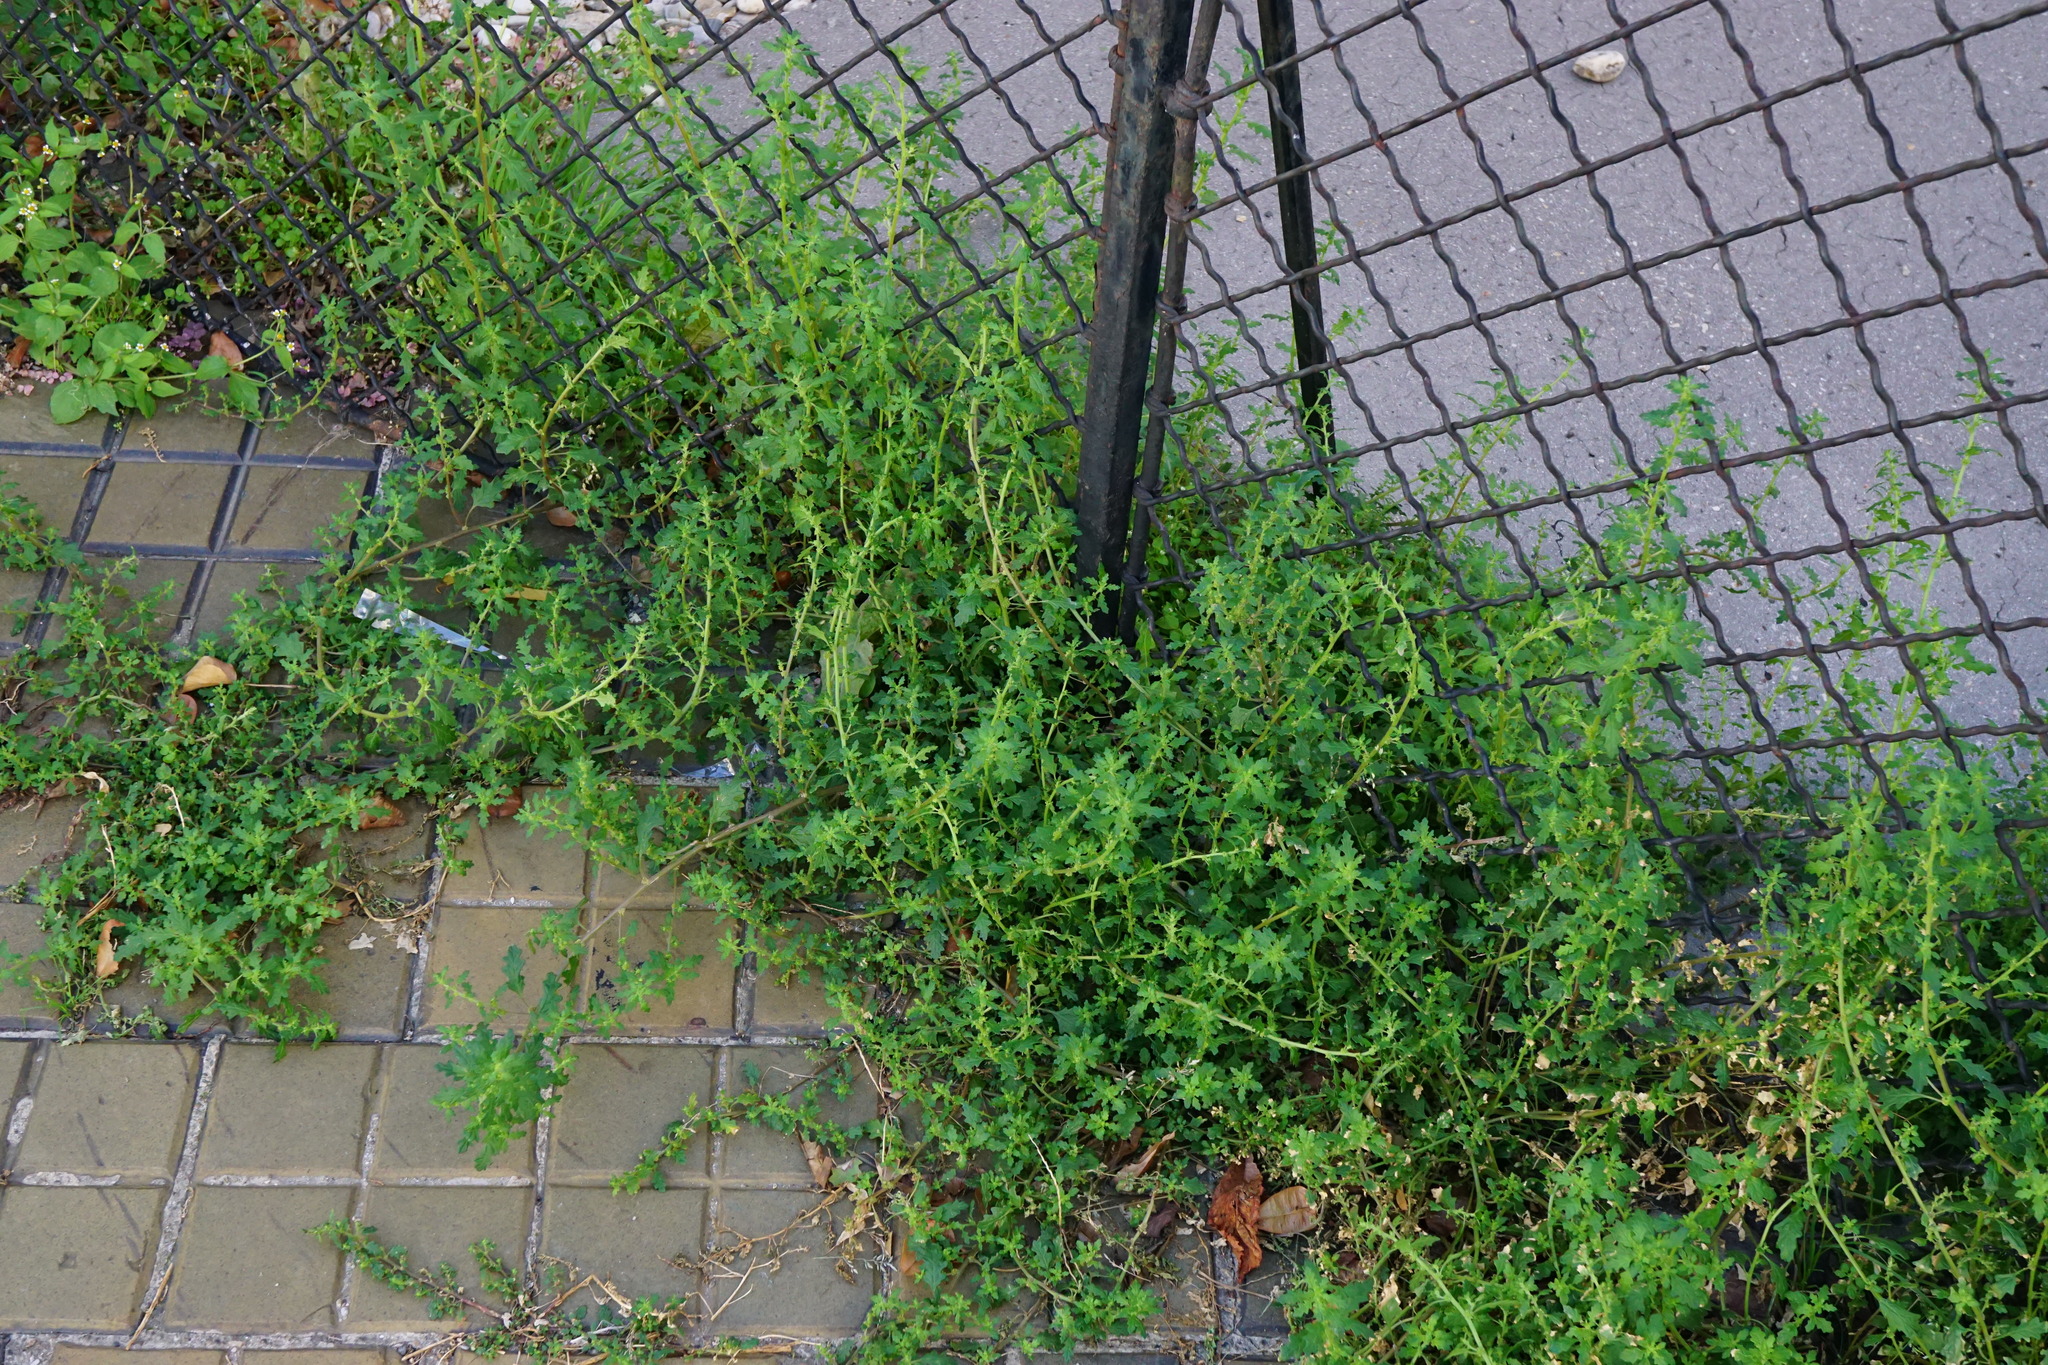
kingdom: Plantae
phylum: Tracheophyta
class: Magnoliopsida
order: Caryophyllales
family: Amaranthaceae
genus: Dysphania
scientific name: Dysphania pumilio
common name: Clammy goosefoot
